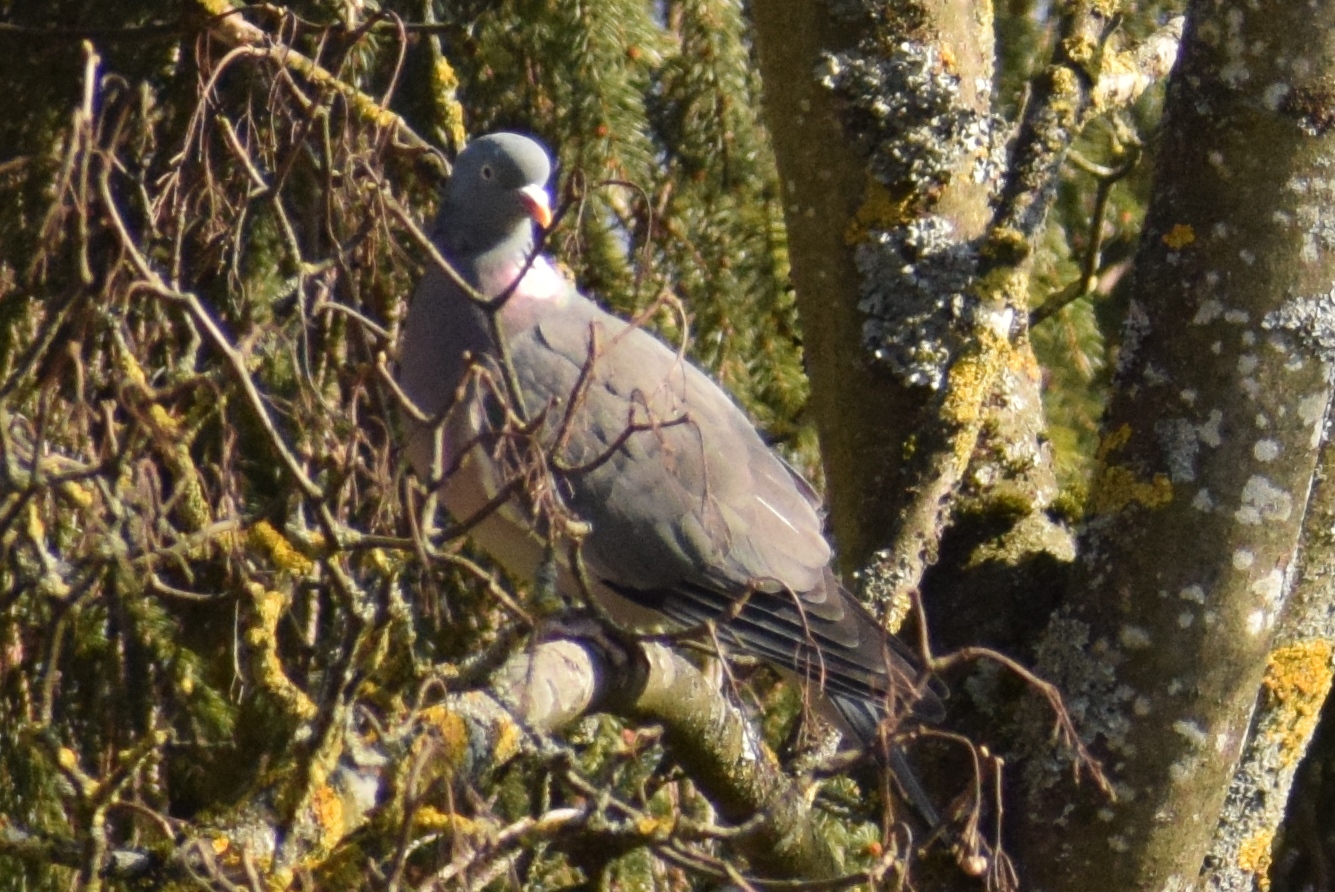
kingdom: Animalia
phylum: Chordata
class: Aves
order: Columbiformes
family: Columbidae
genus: Columba
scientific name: Columba palumbus
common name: Common wood pigeon
